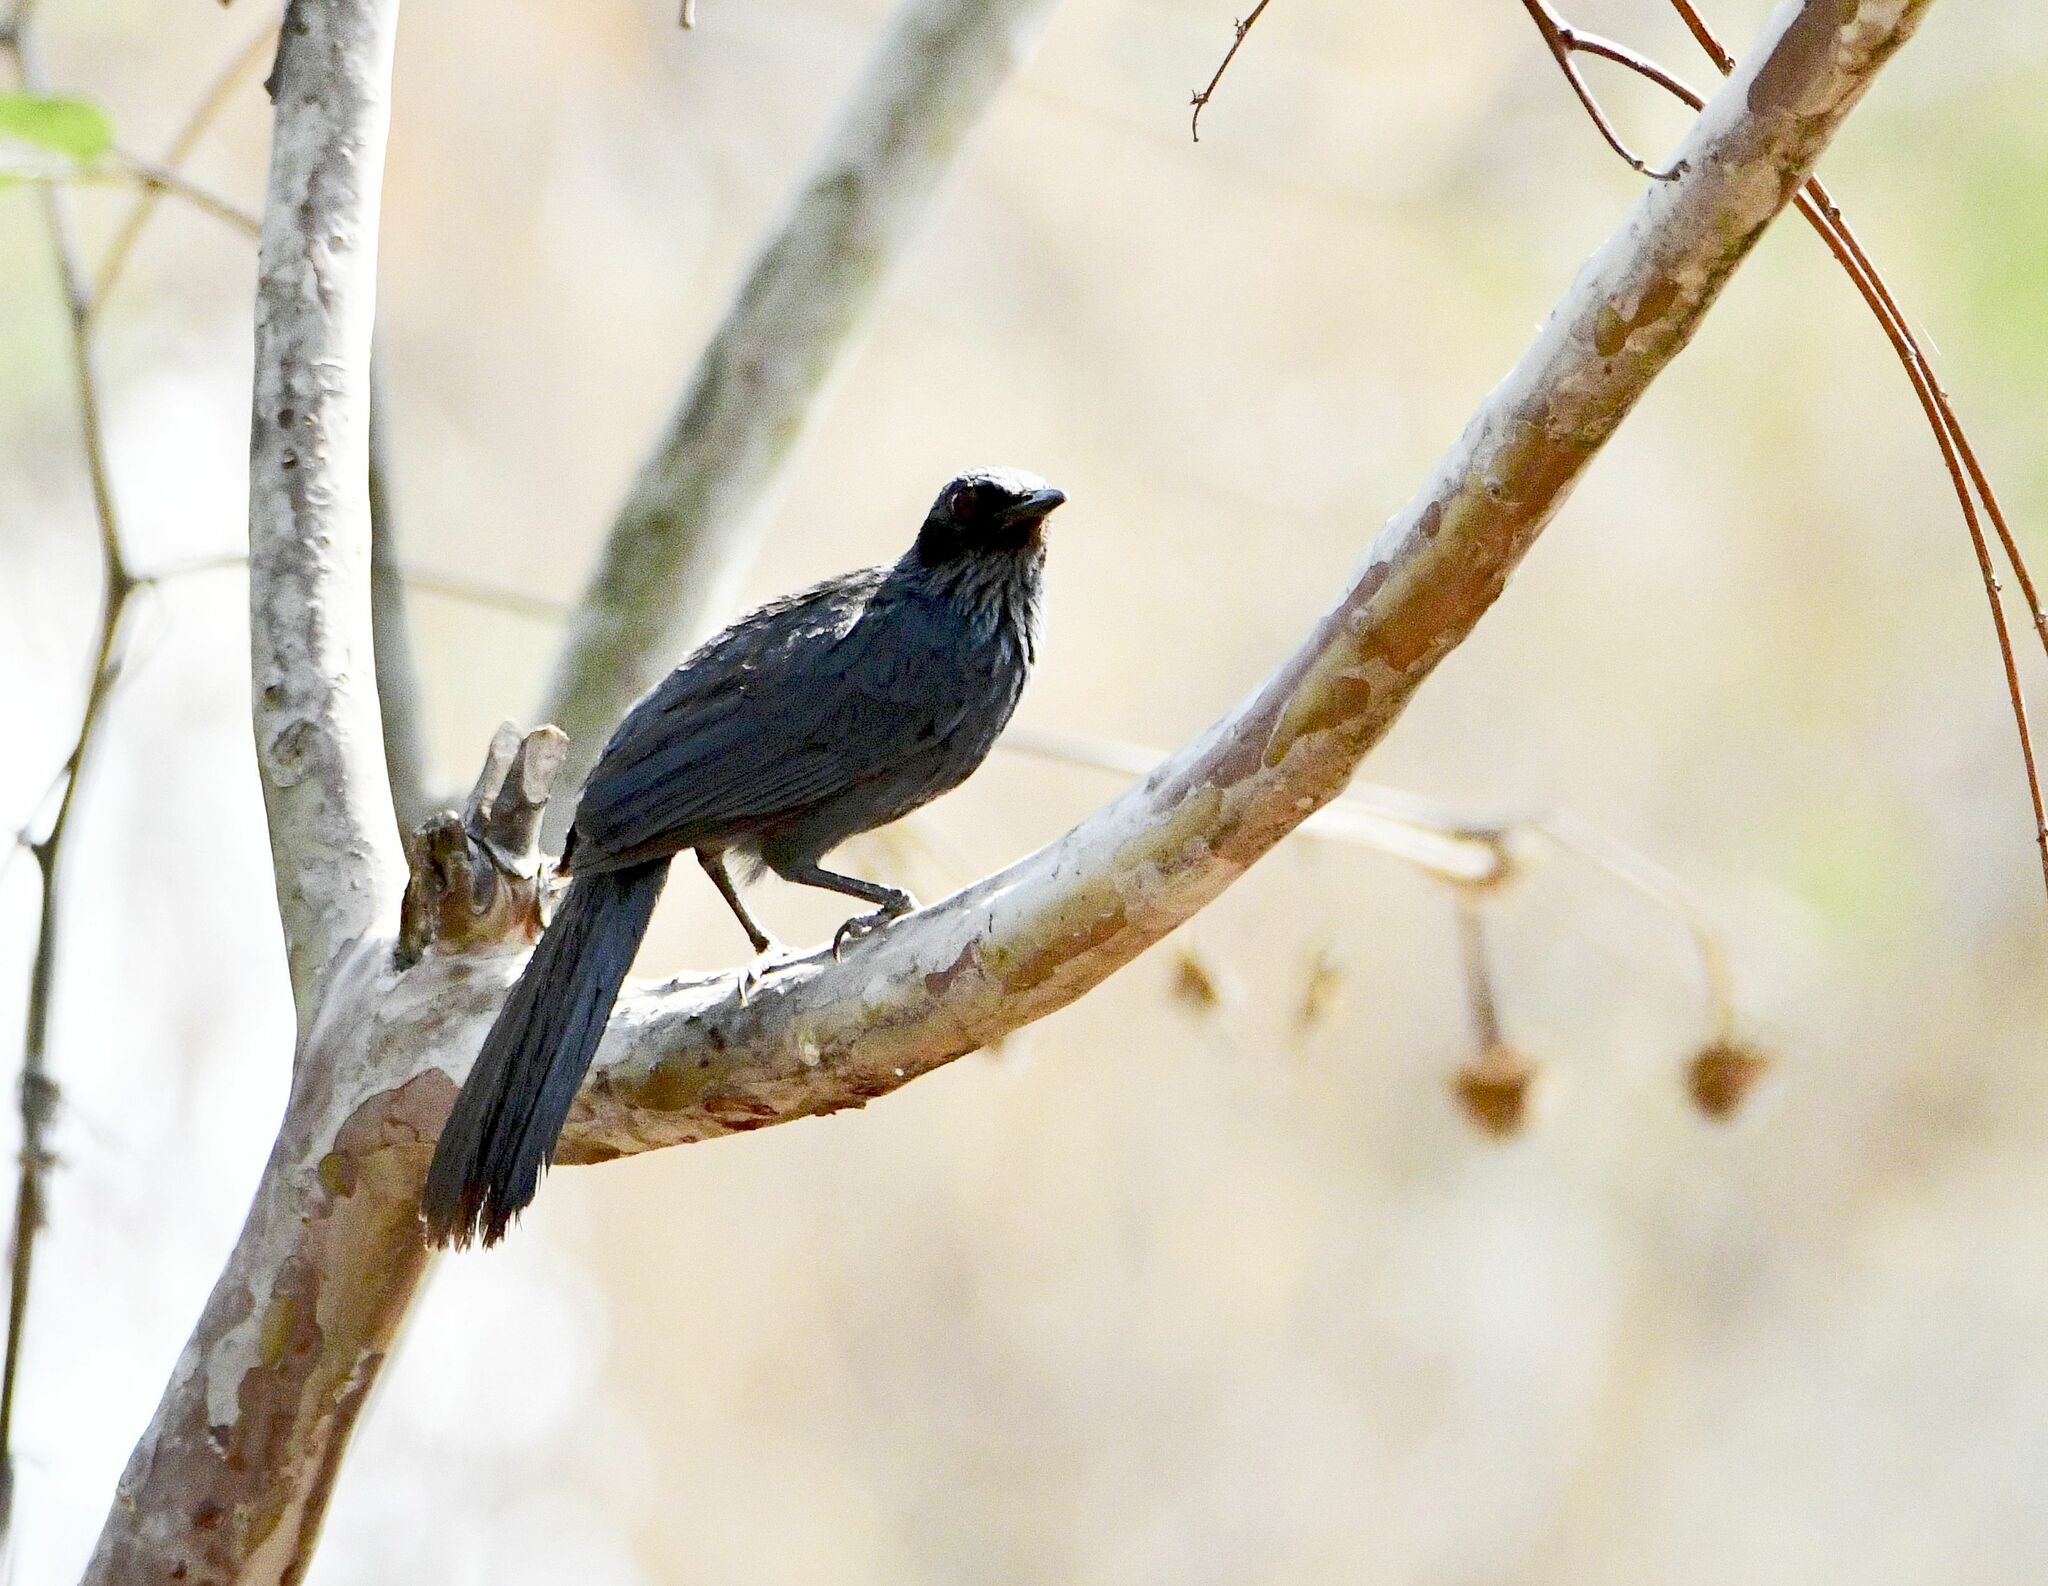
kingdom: Animalia
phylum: Chordata
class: Aves
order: Passeriformes
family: Mimidae
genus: Melanotis
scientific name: Melanotis caerulescens
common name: Blue mockingbird
